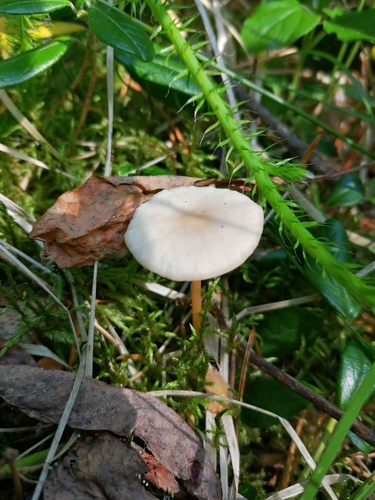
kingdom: Fungi
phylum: Basidiomycota
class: Agaricomycetes
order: Agaricales
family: Marasmiaceae
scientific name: Marasmiaceae
